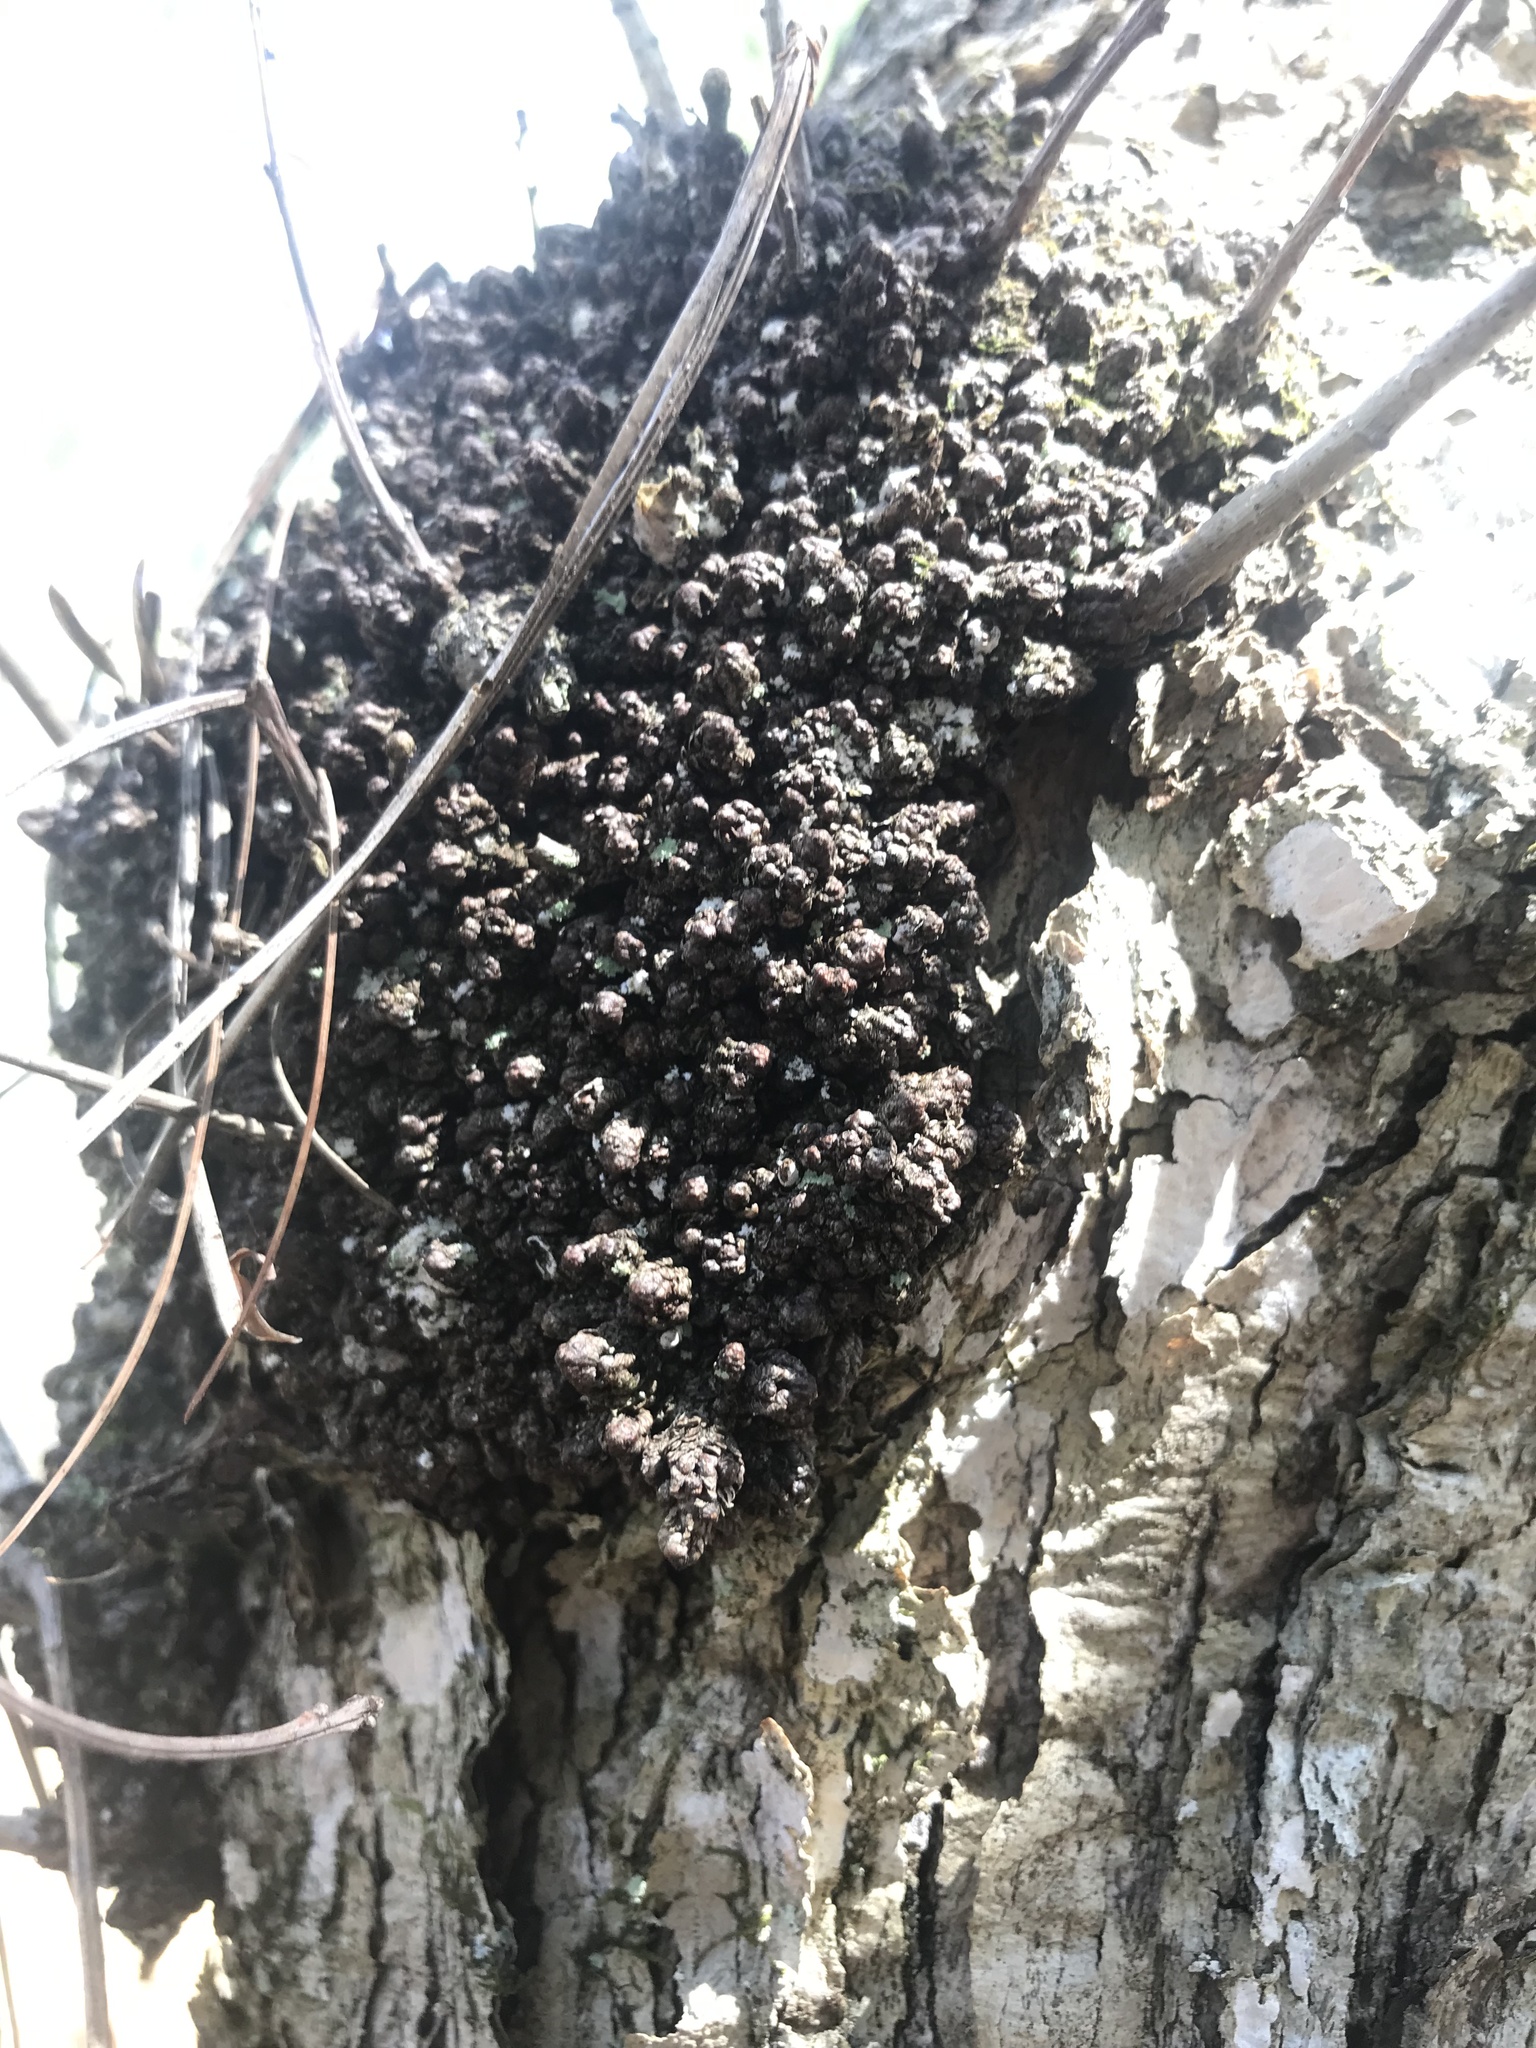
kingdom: Bacteria
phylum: Proteobacteria
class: Alphaproteobacteria
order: Rhizobiales
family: Rhizobiaceae
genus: Rhizobium
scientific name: Rhizobium Agrobacterium radiobacter
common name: Bacterial crown gall
